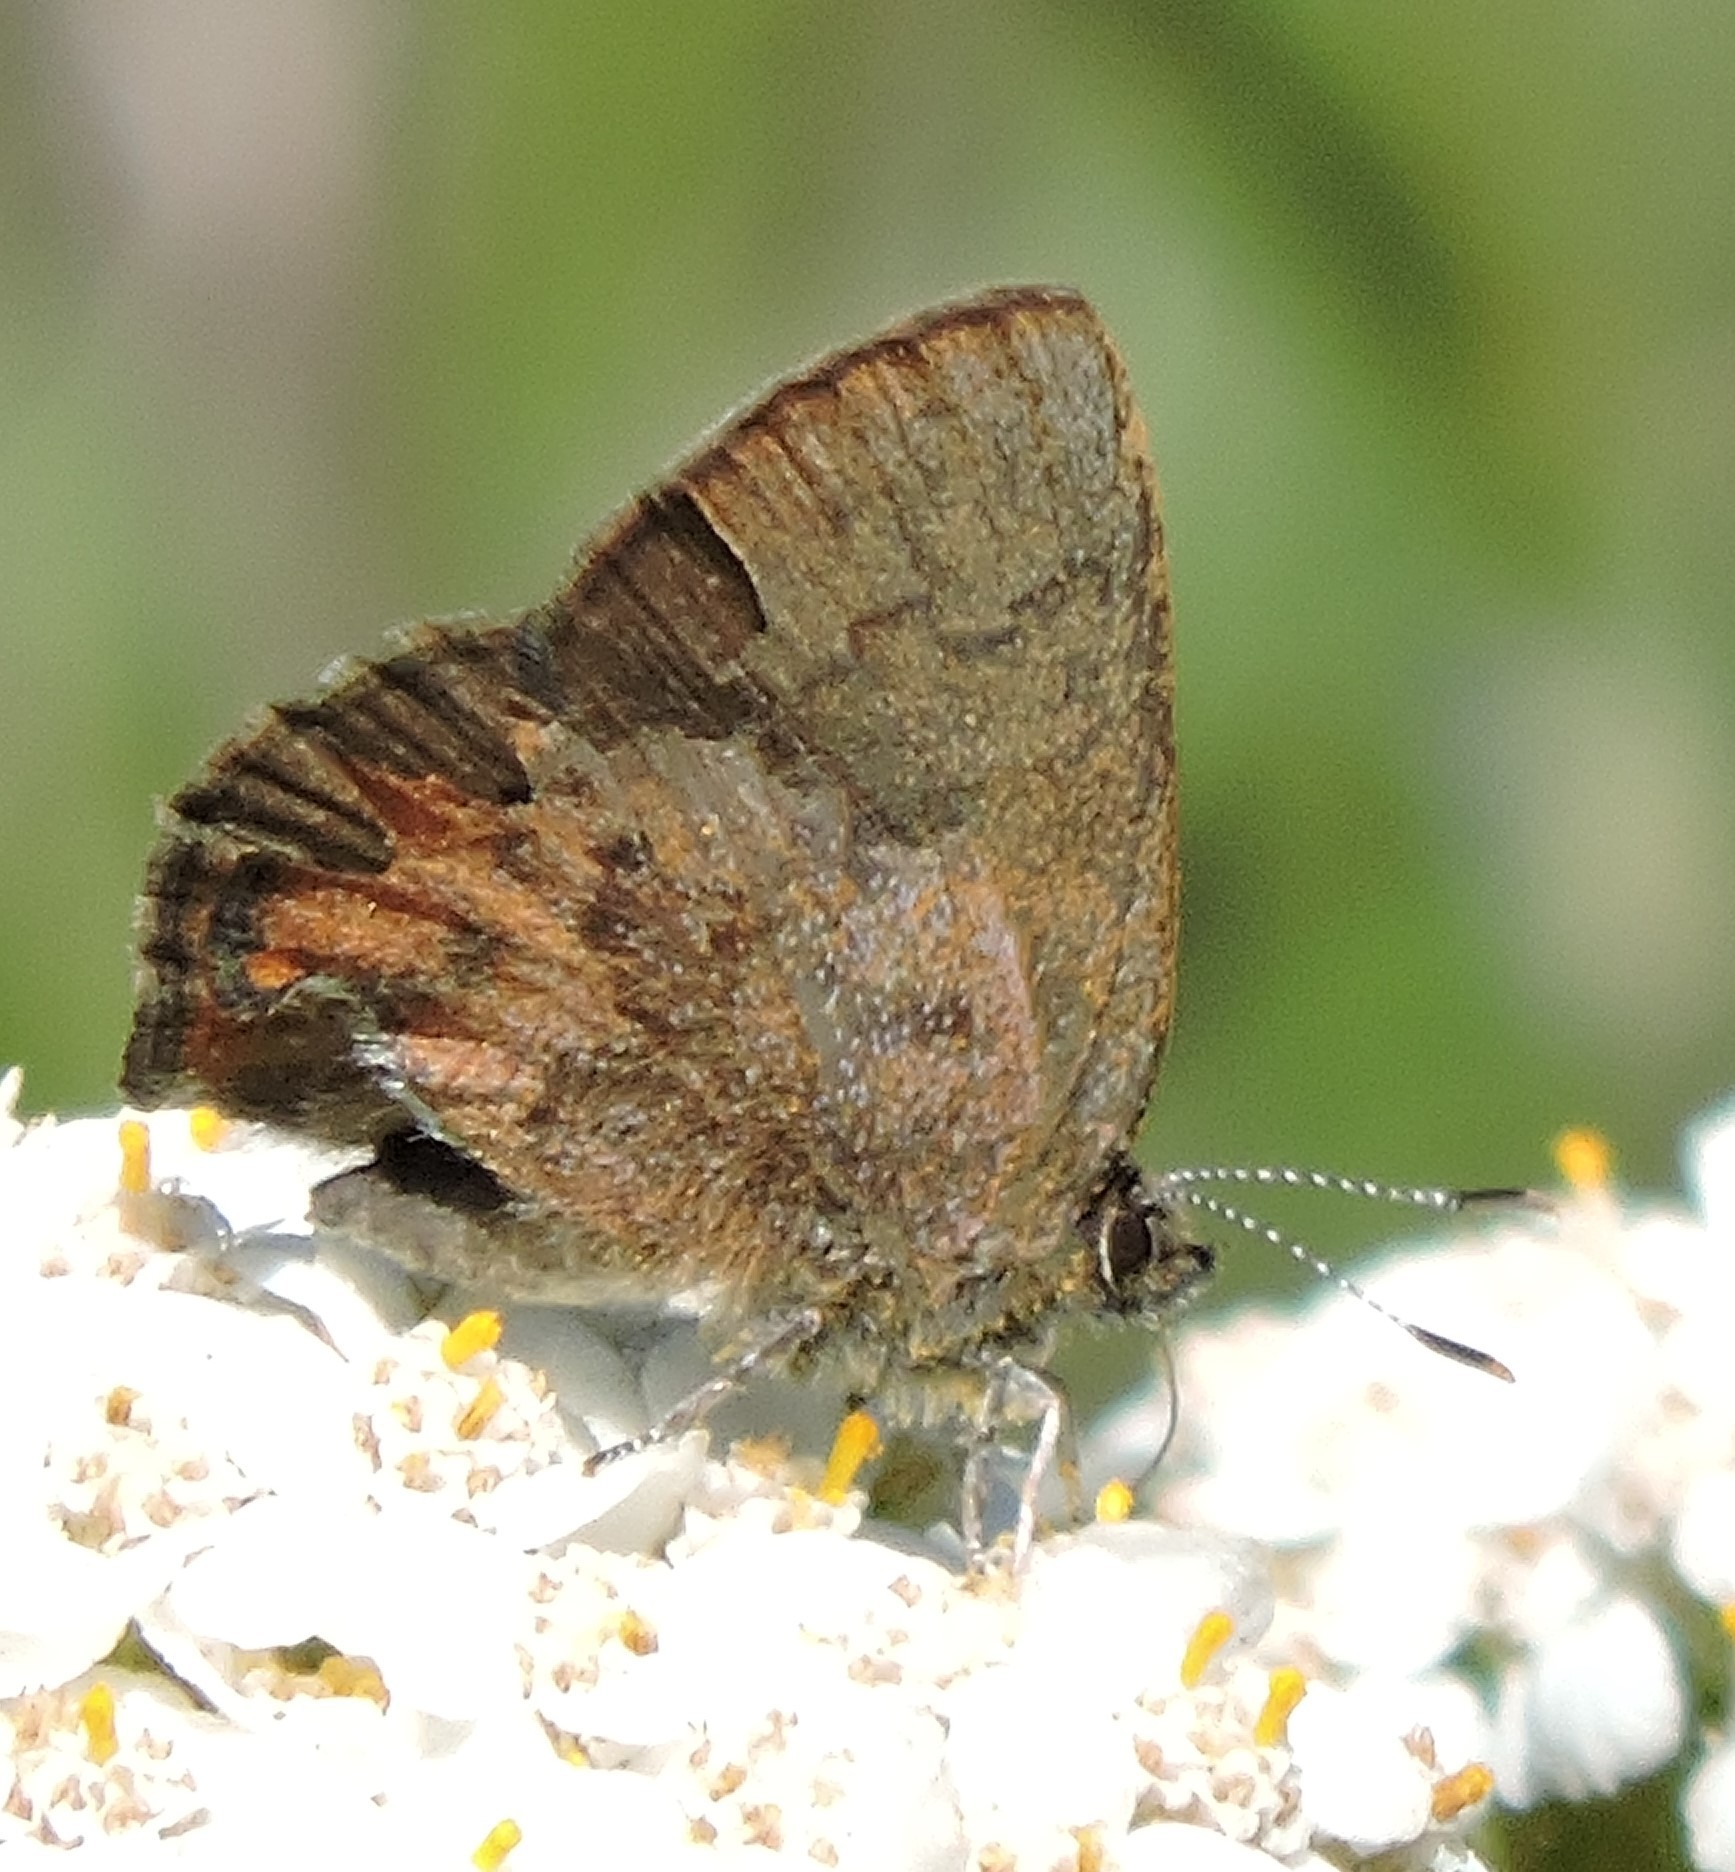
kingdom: Animalia
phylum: Arthropoda
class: Insecta
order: Lepidoptera
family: Lycaenidae
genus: Incisalia
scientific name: Incisalia irioides
